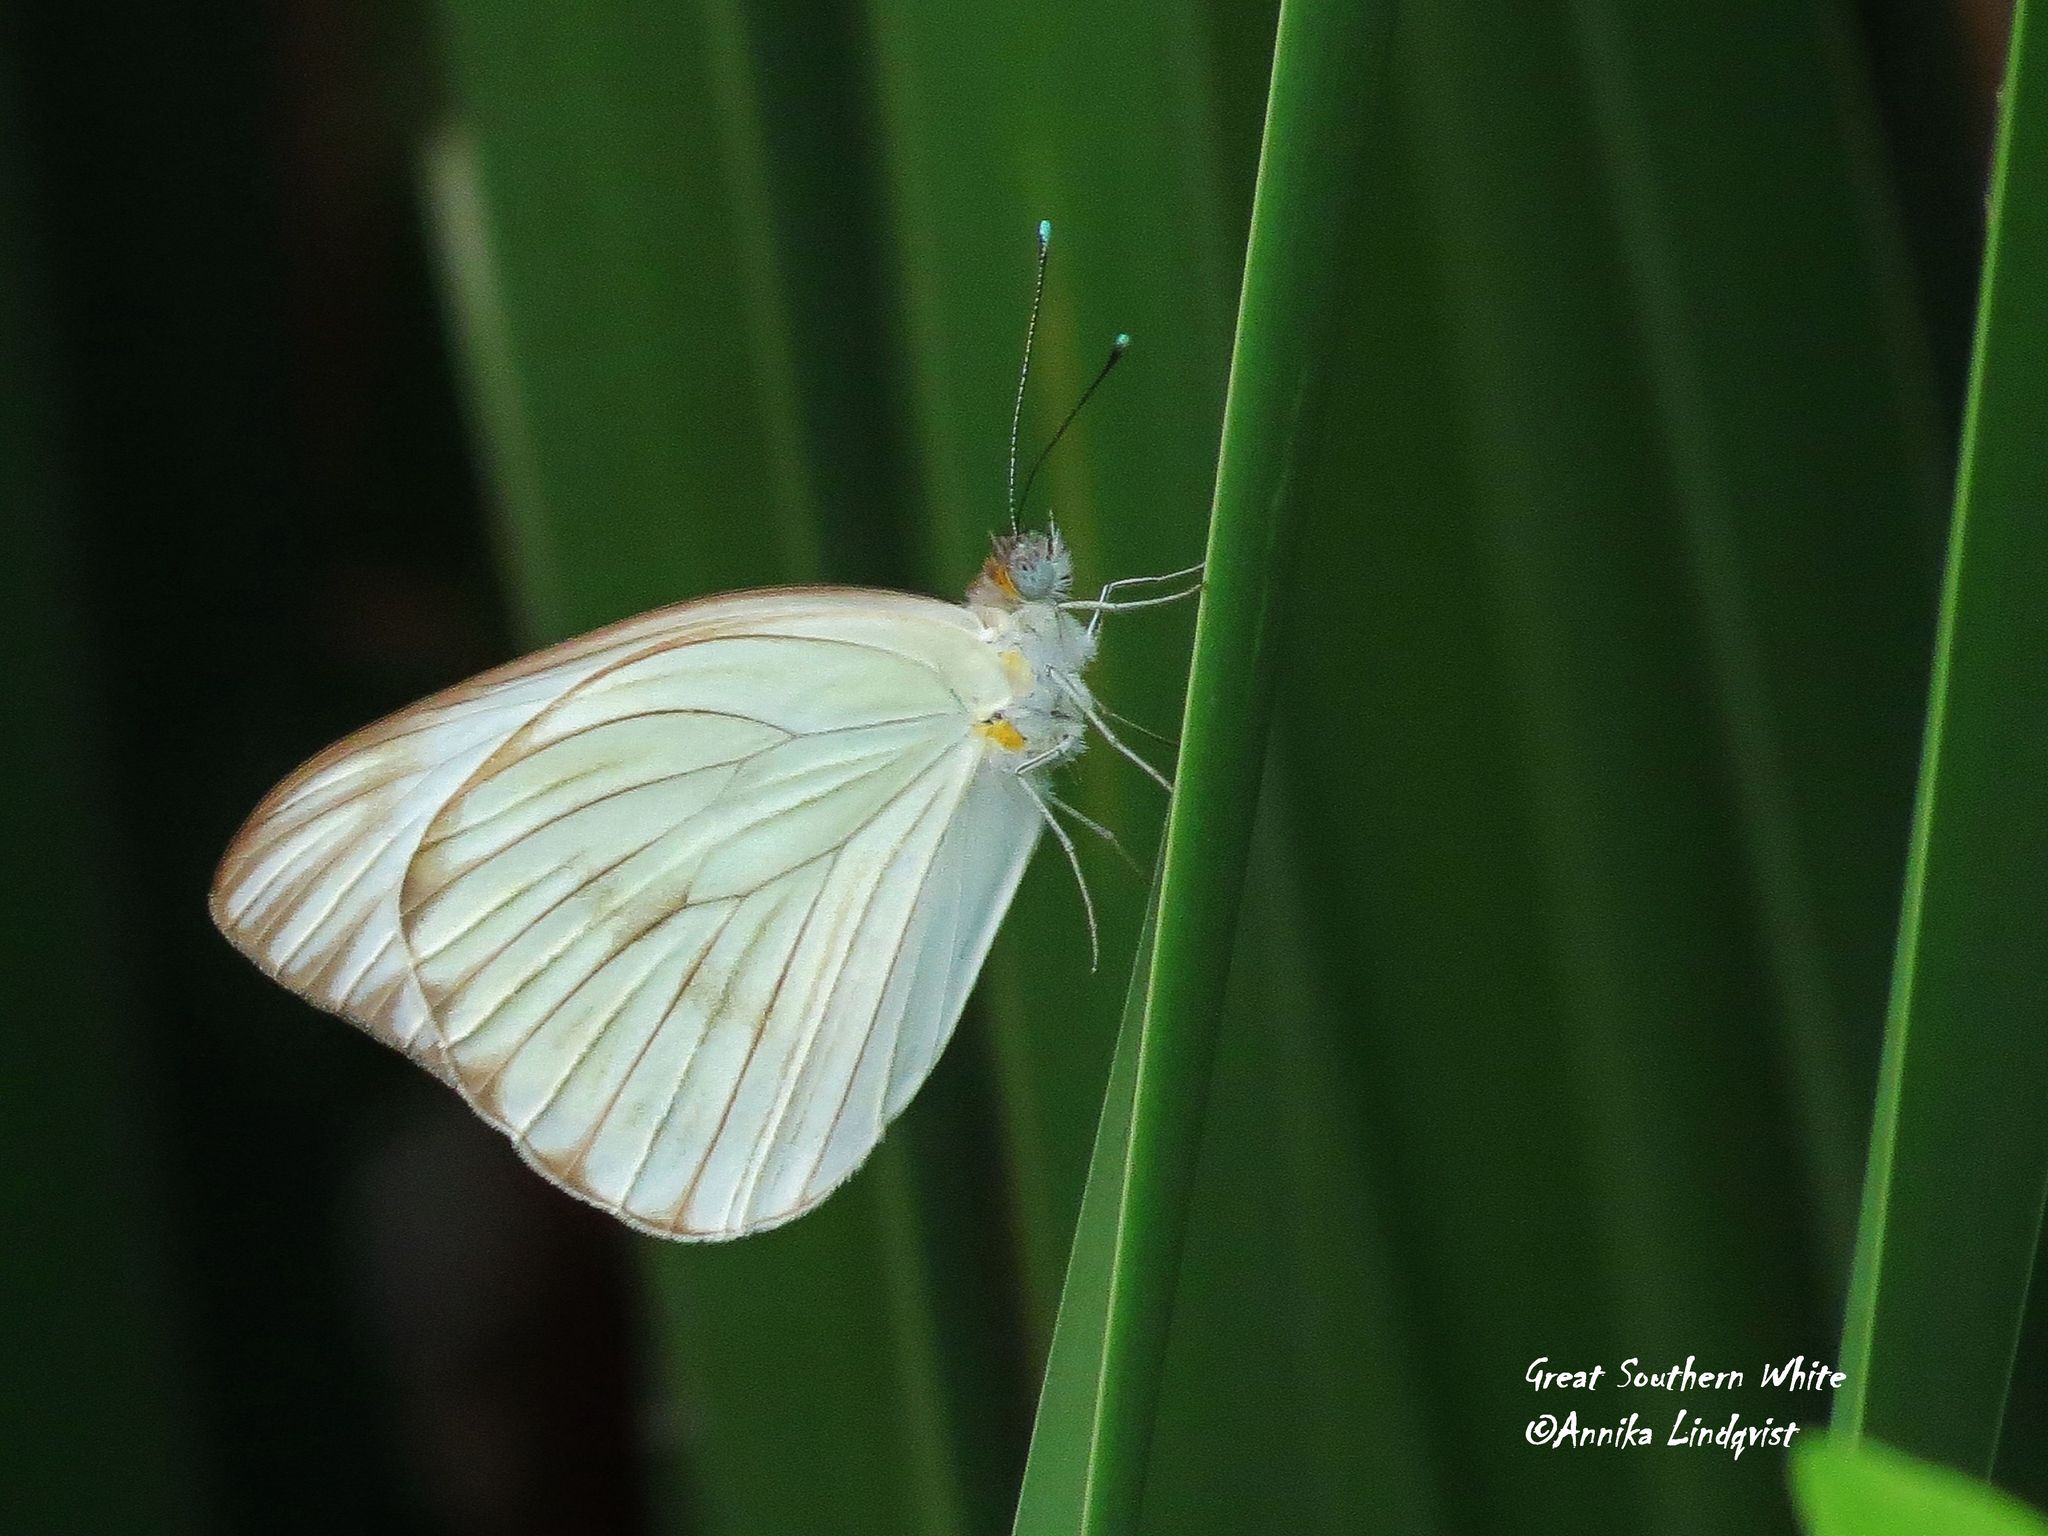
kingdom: Animalia
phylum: Arthropoda
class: Insecta
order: Lepidoptera
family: Pieridae
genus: Ascia
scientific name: Ascia monuste
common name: Great southern white
